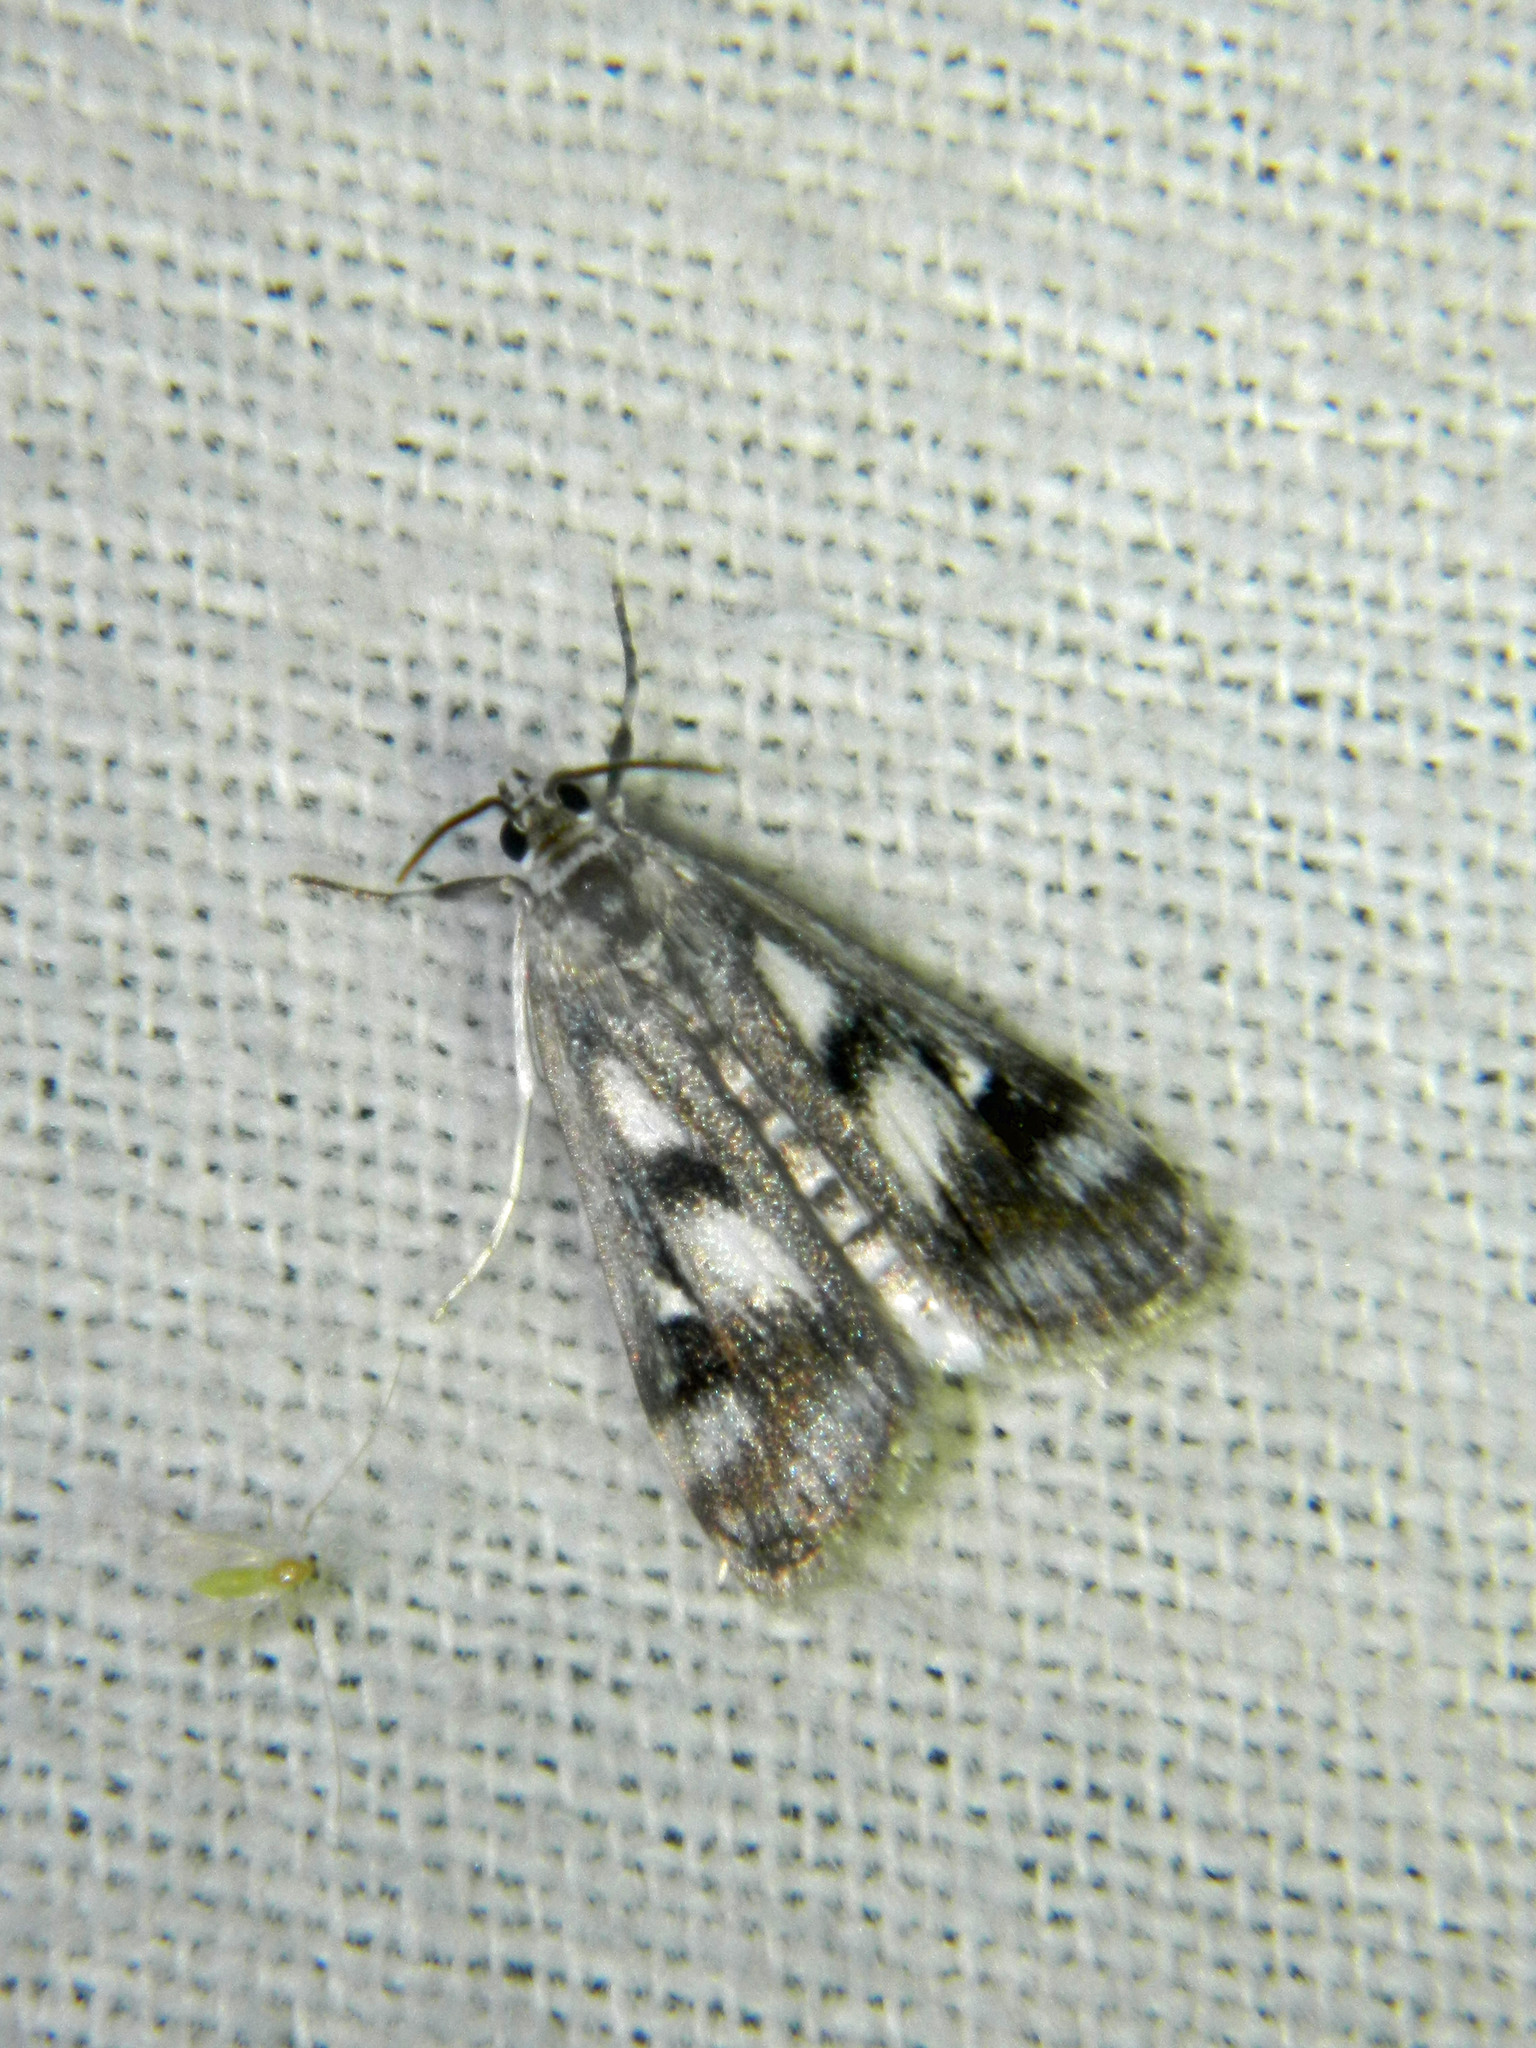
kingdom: Animalia
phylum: Arthropoda
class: Insecta
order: Lepidoptera
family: Crambidae
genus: Parapoynx
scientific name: Parapoynx maculalis
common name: Polymorphic pondweed moth
